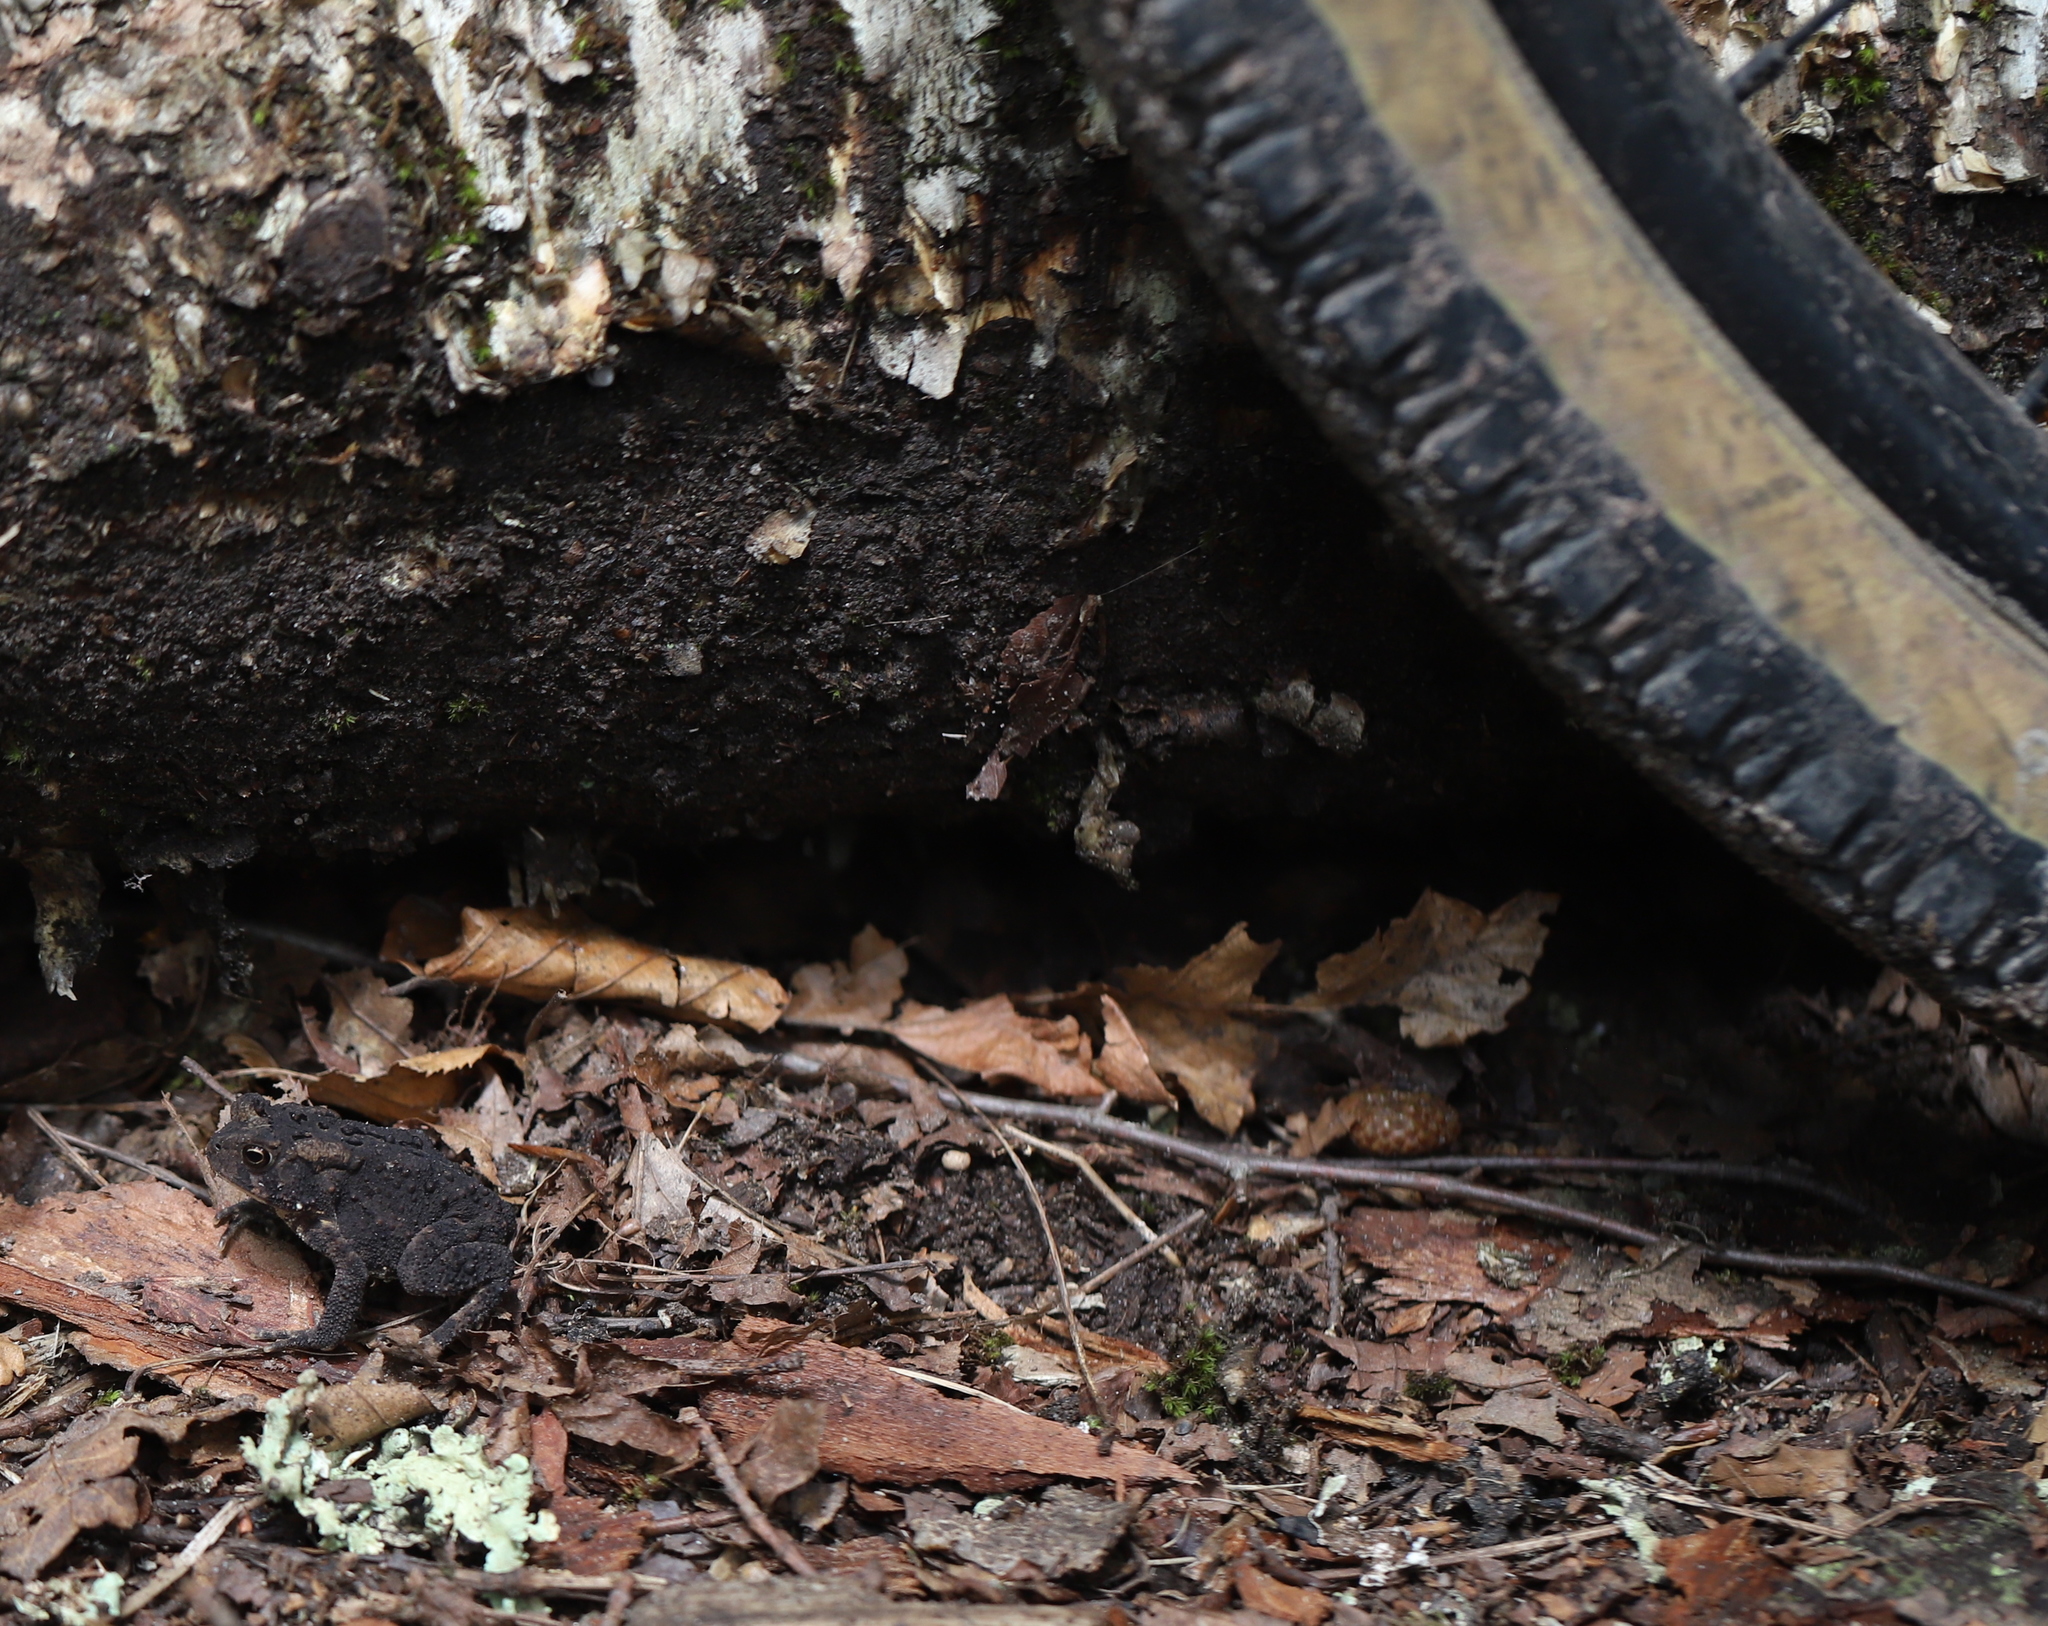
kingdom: Animalia
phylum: Chordata
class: Amphibia
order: Anura
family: Bufonidae
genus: Anaxyrus
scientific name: Anaxyrus americanus
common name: American toad
